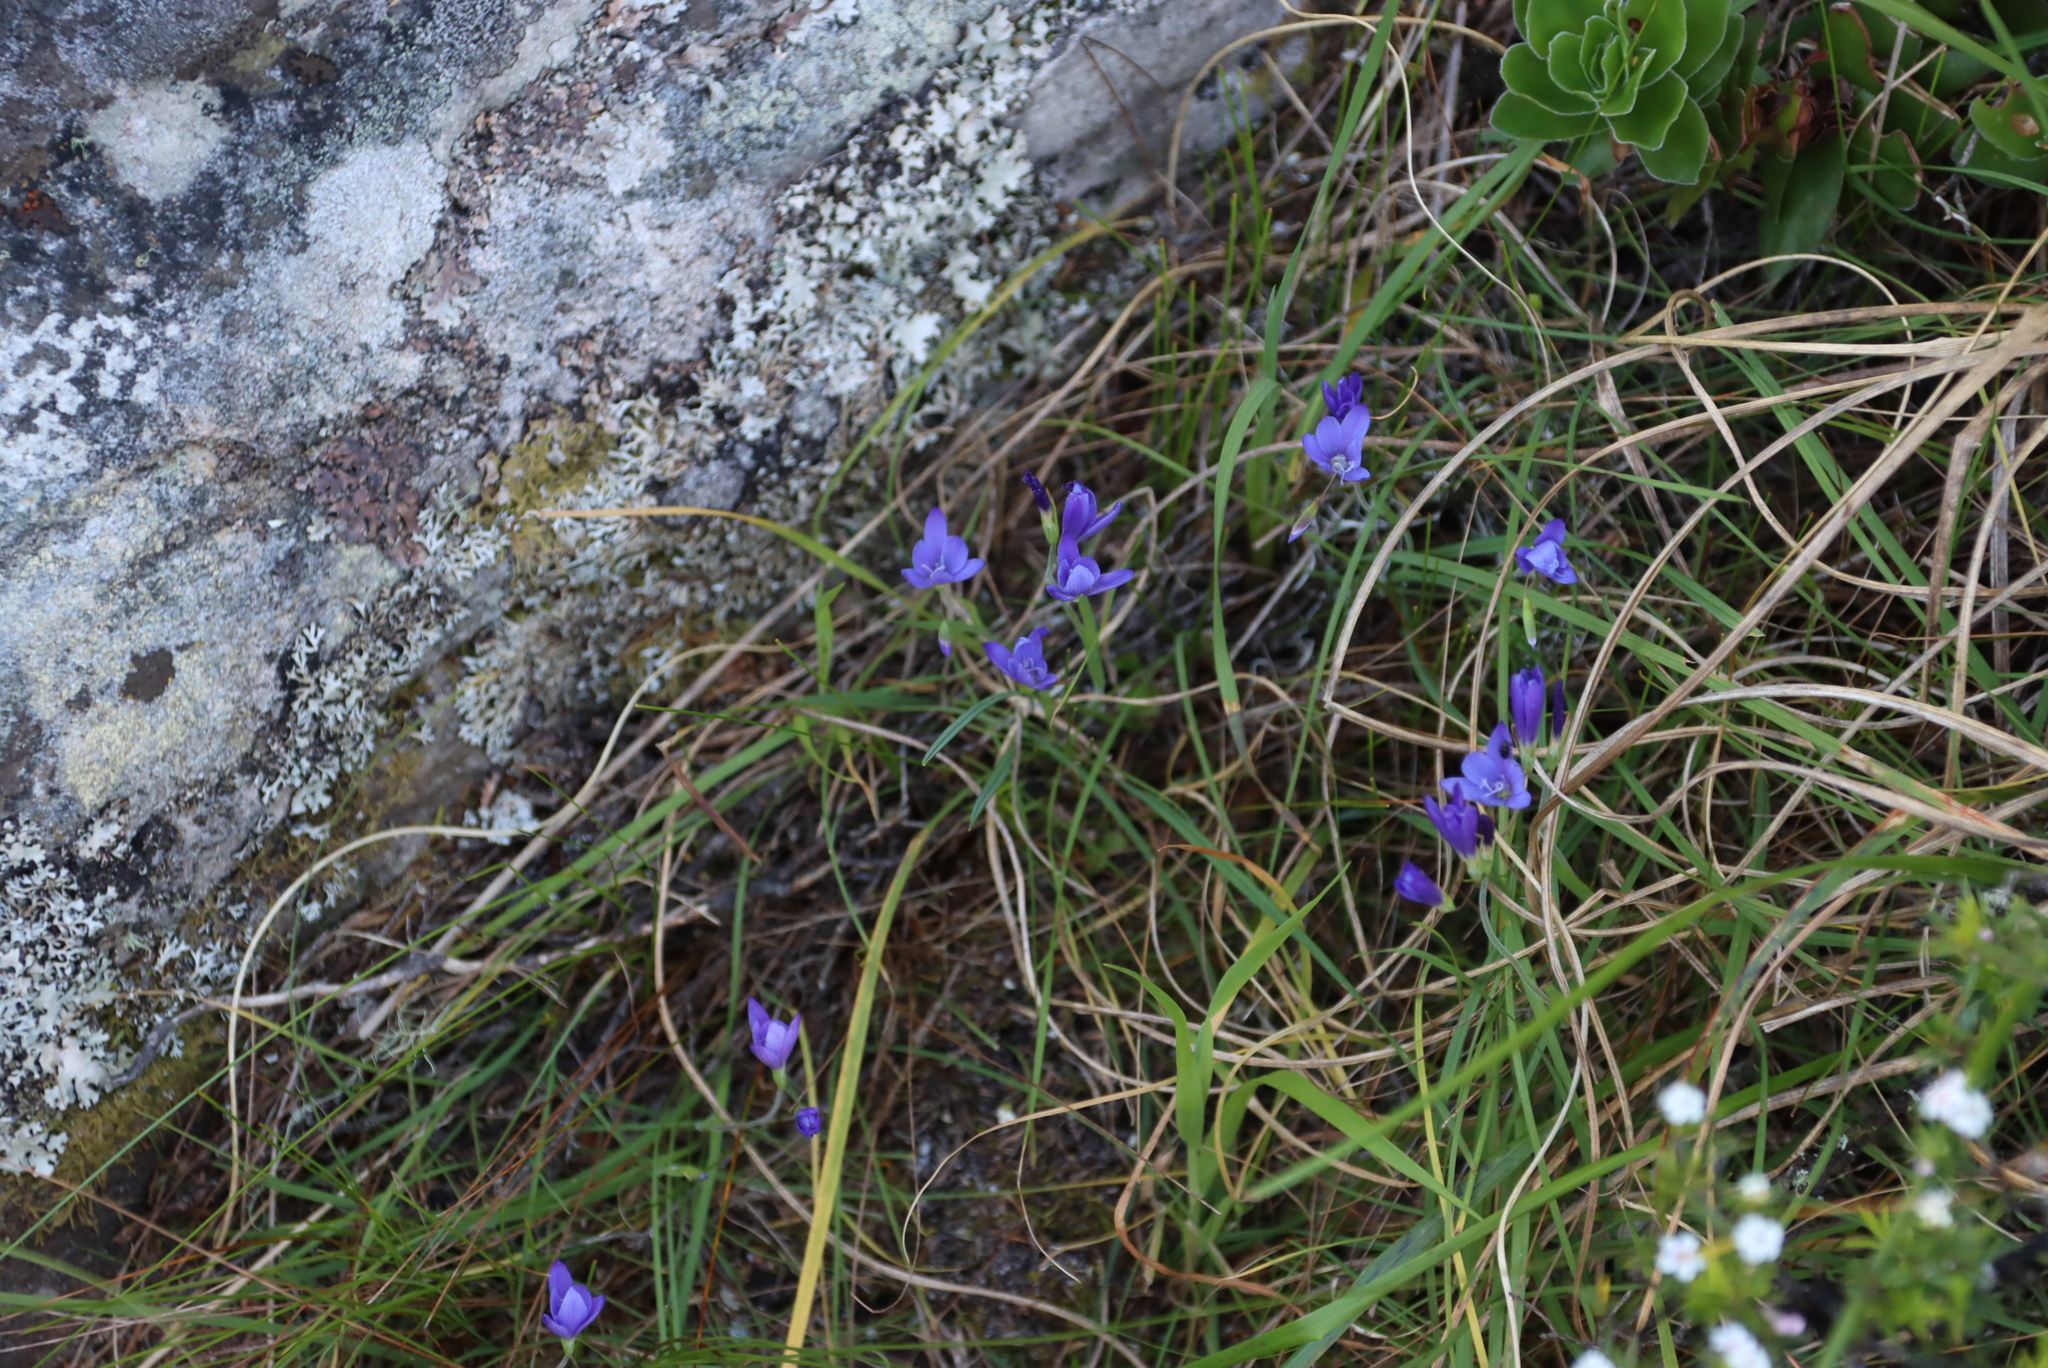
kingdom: Plantae
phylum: Tracheophyta
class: Liliopsida
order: Asparagales
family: Iridaceae
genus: Geissorhiza
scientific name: Geissorhiza aspera
